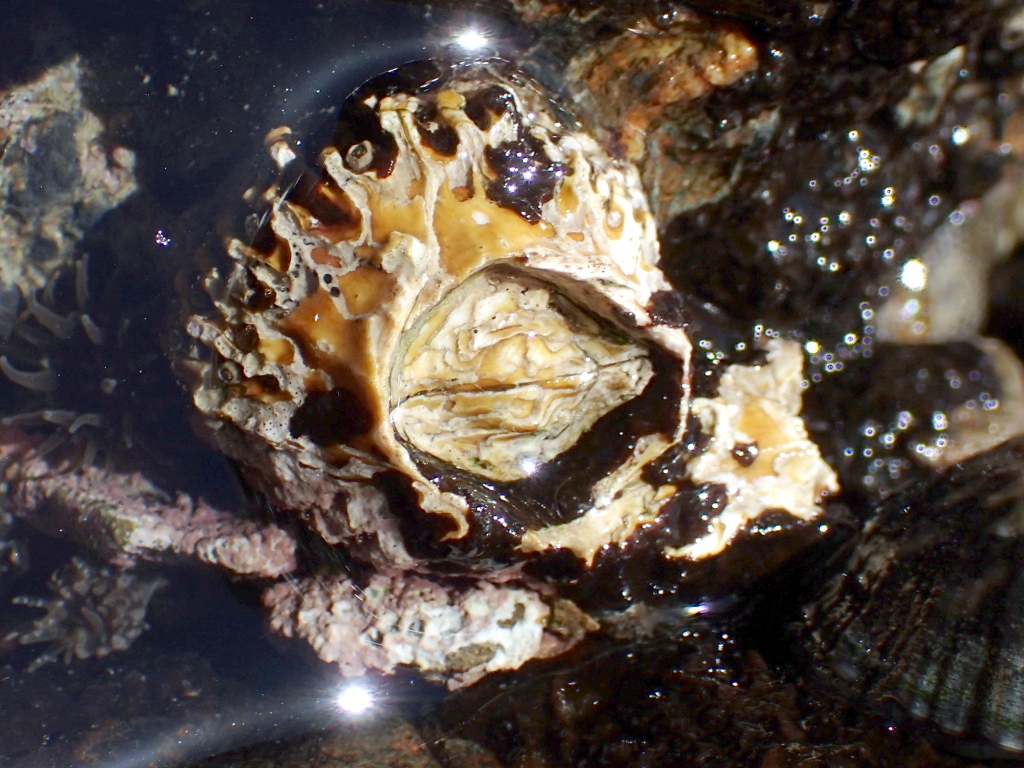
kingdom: Animalia
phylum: Arthropoda
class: Maxillopoda
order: Sessilia
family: Tetraclitidae
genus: Epopella
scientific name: Epopella plicata
